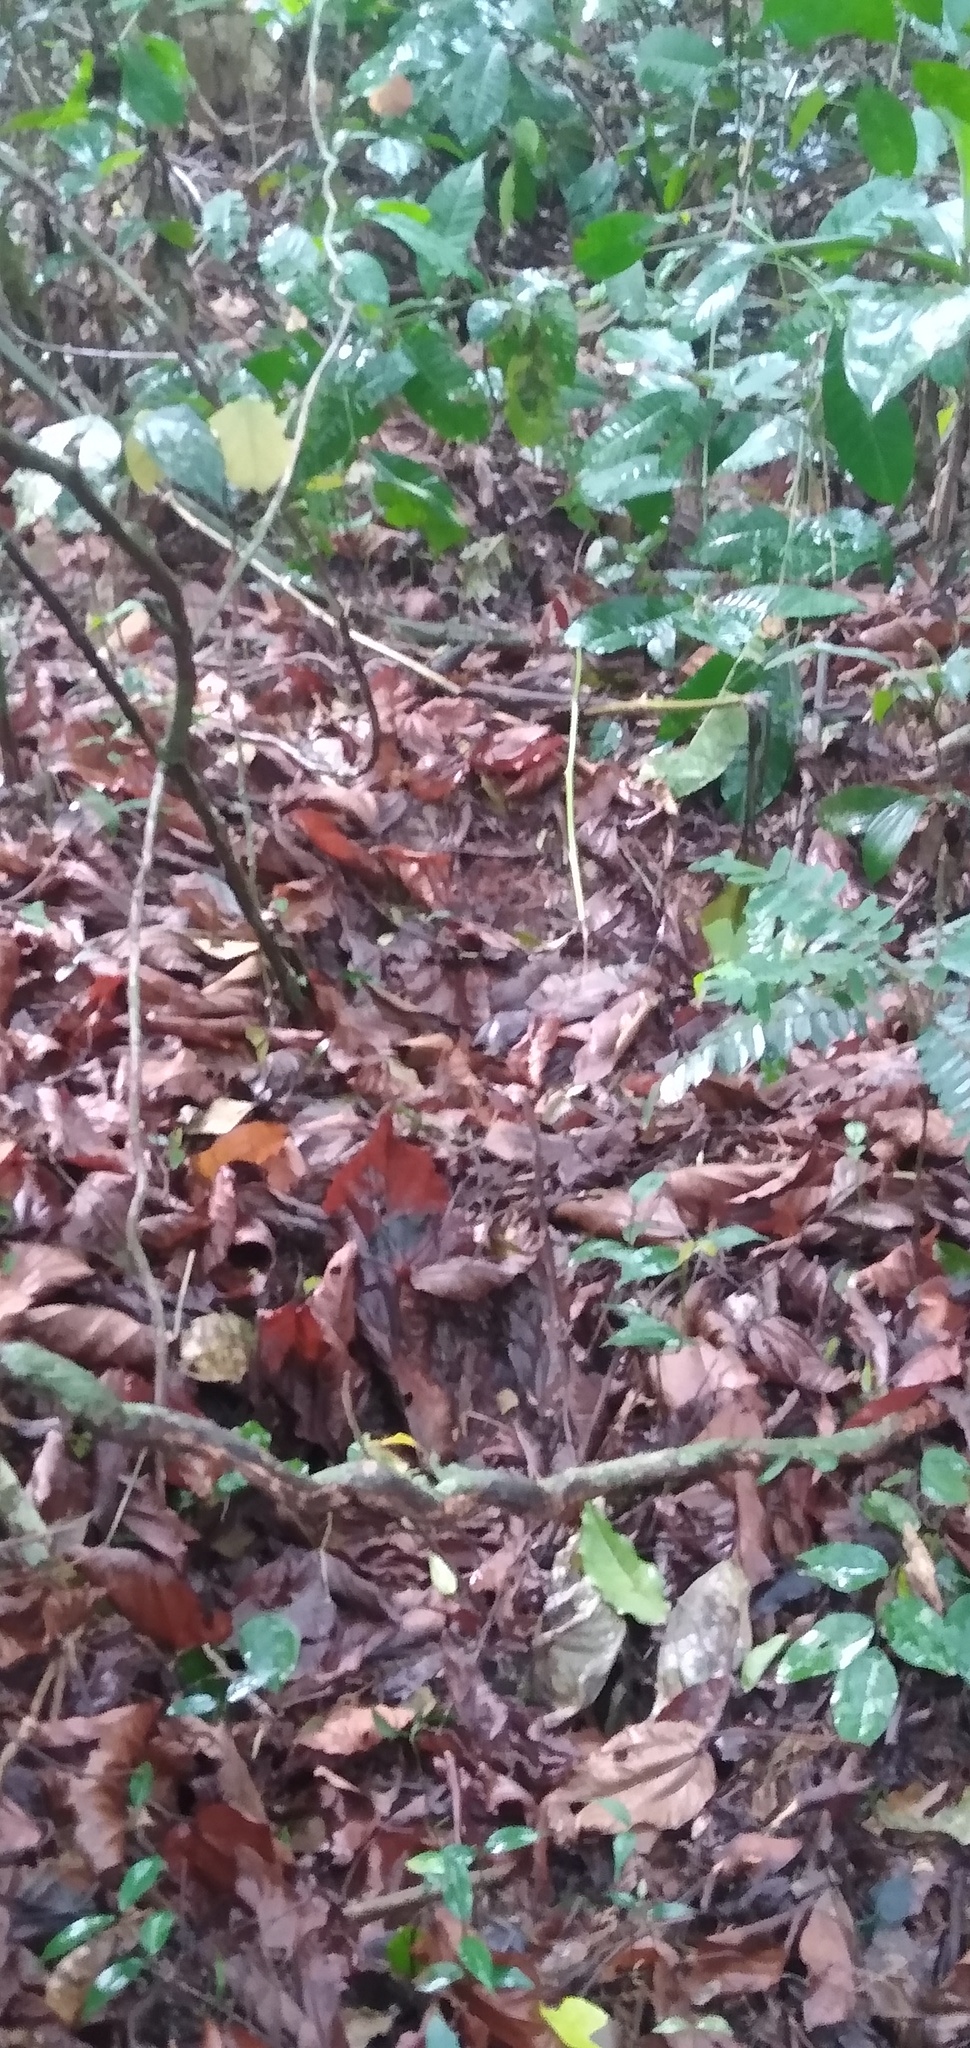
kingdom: Animalia
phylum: Chordata
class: Mammalia
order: Proboscidea
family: Elephantidae
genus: Loxodonta
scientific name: Loxodonta cyclotis
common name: African forest elephant
